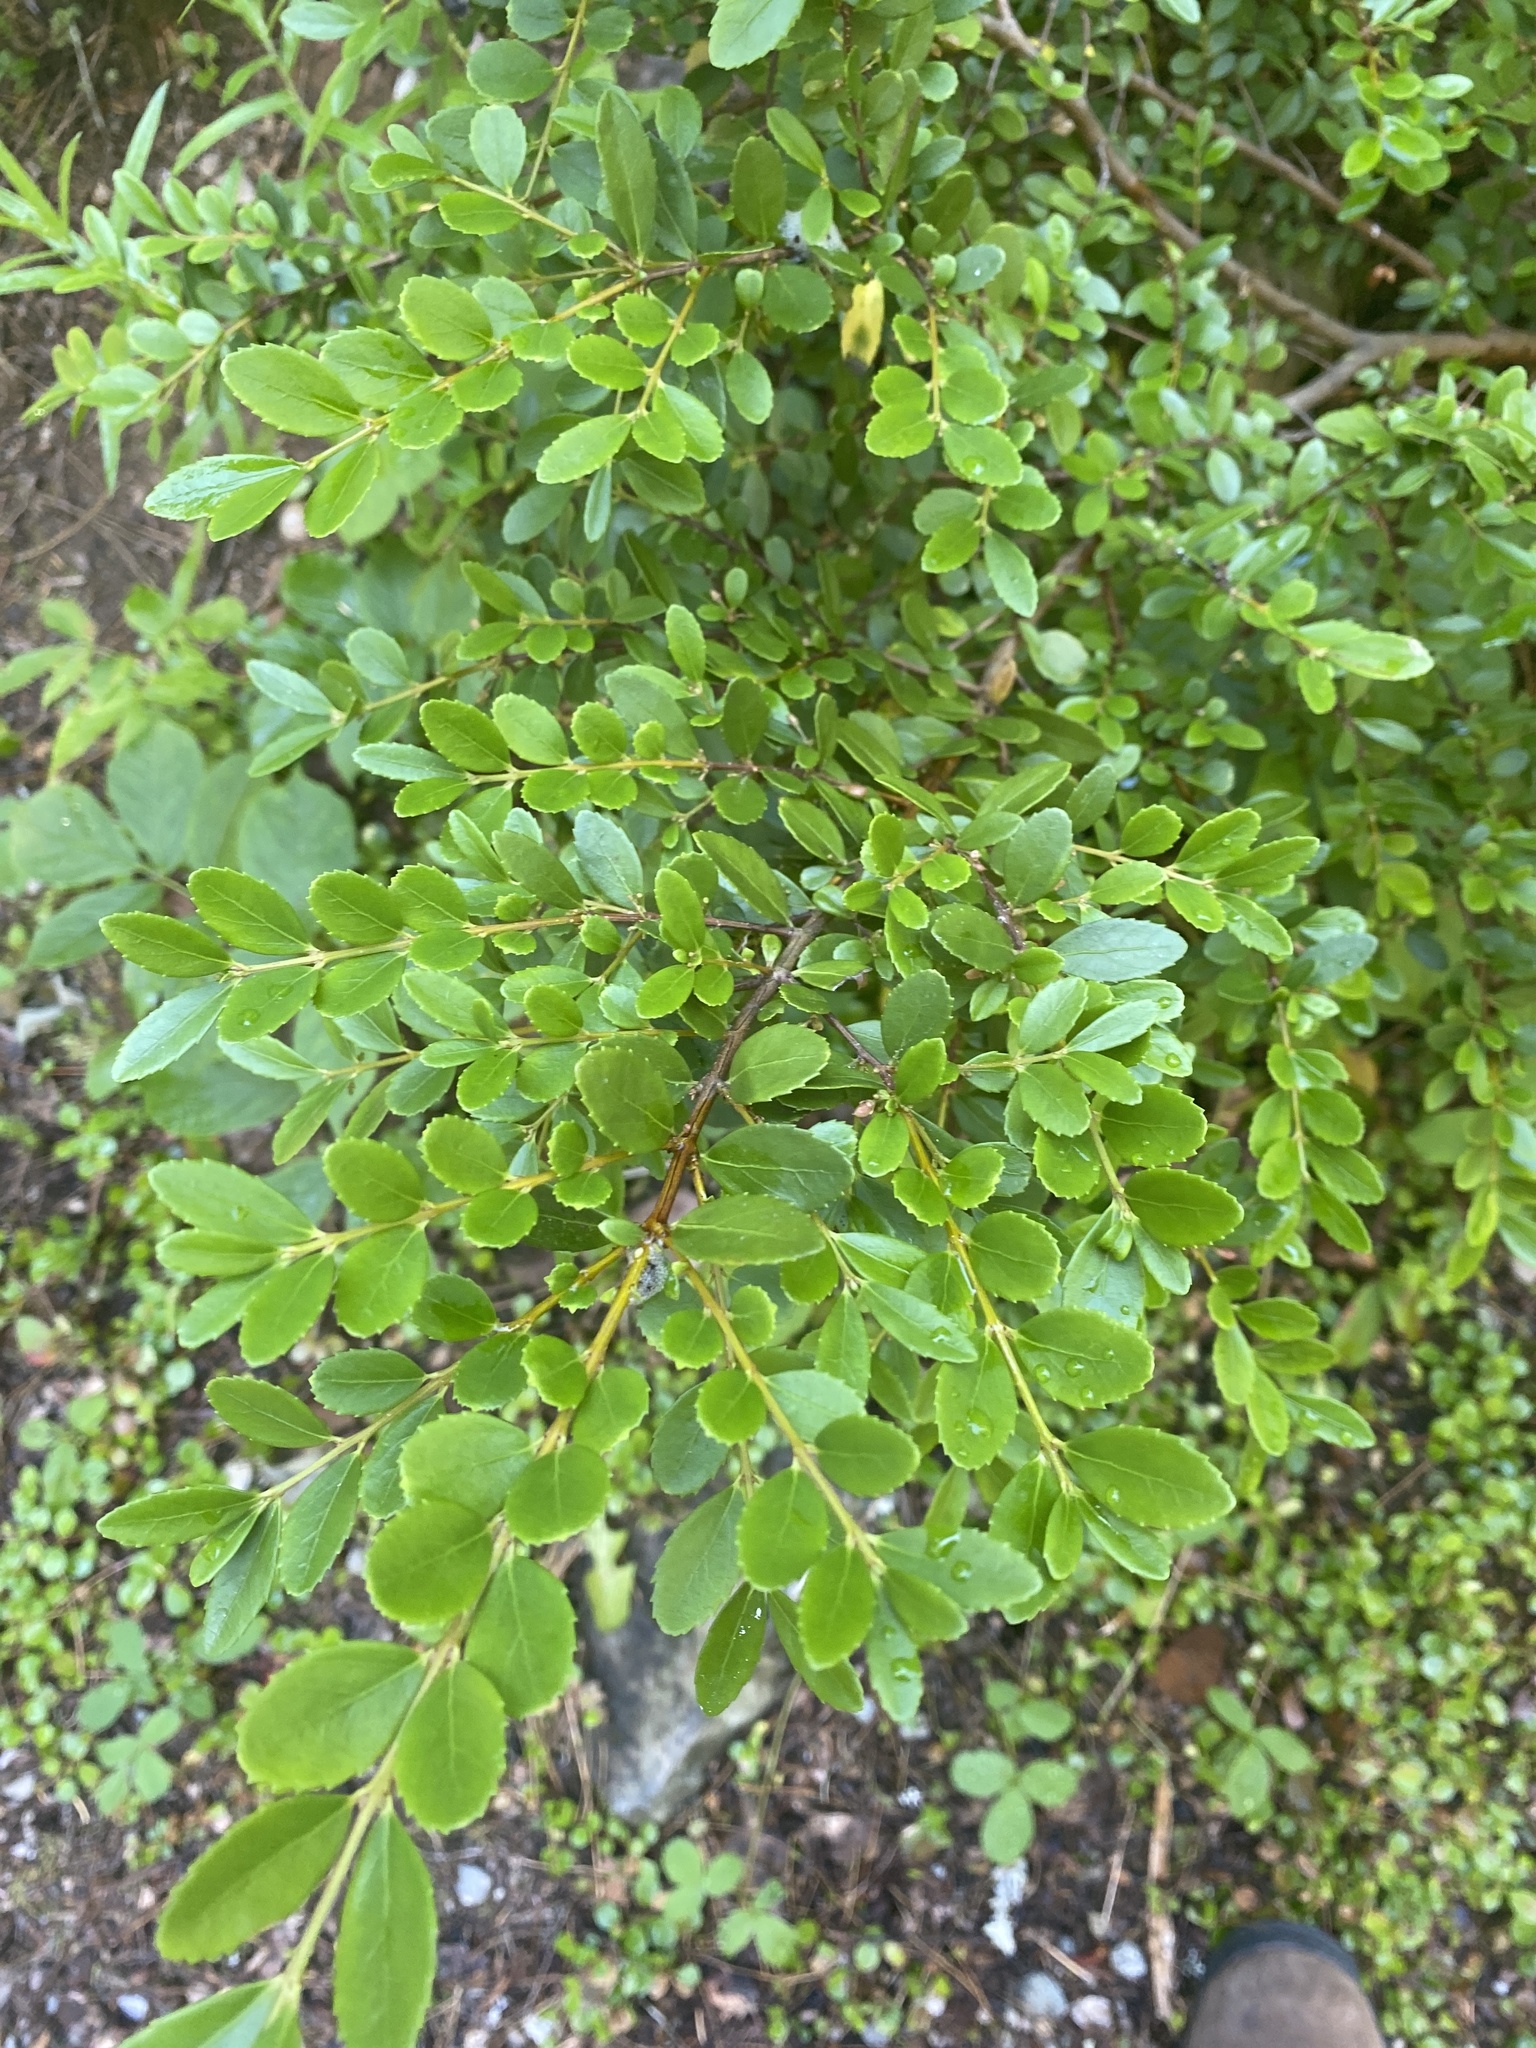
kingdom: Plantae
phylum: Tracheophyta
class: Magnoliopsida
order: Celastrales
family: Celastraceae
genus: Paxistima
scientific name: Paxistima myrsinites
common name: Mountain-lover
